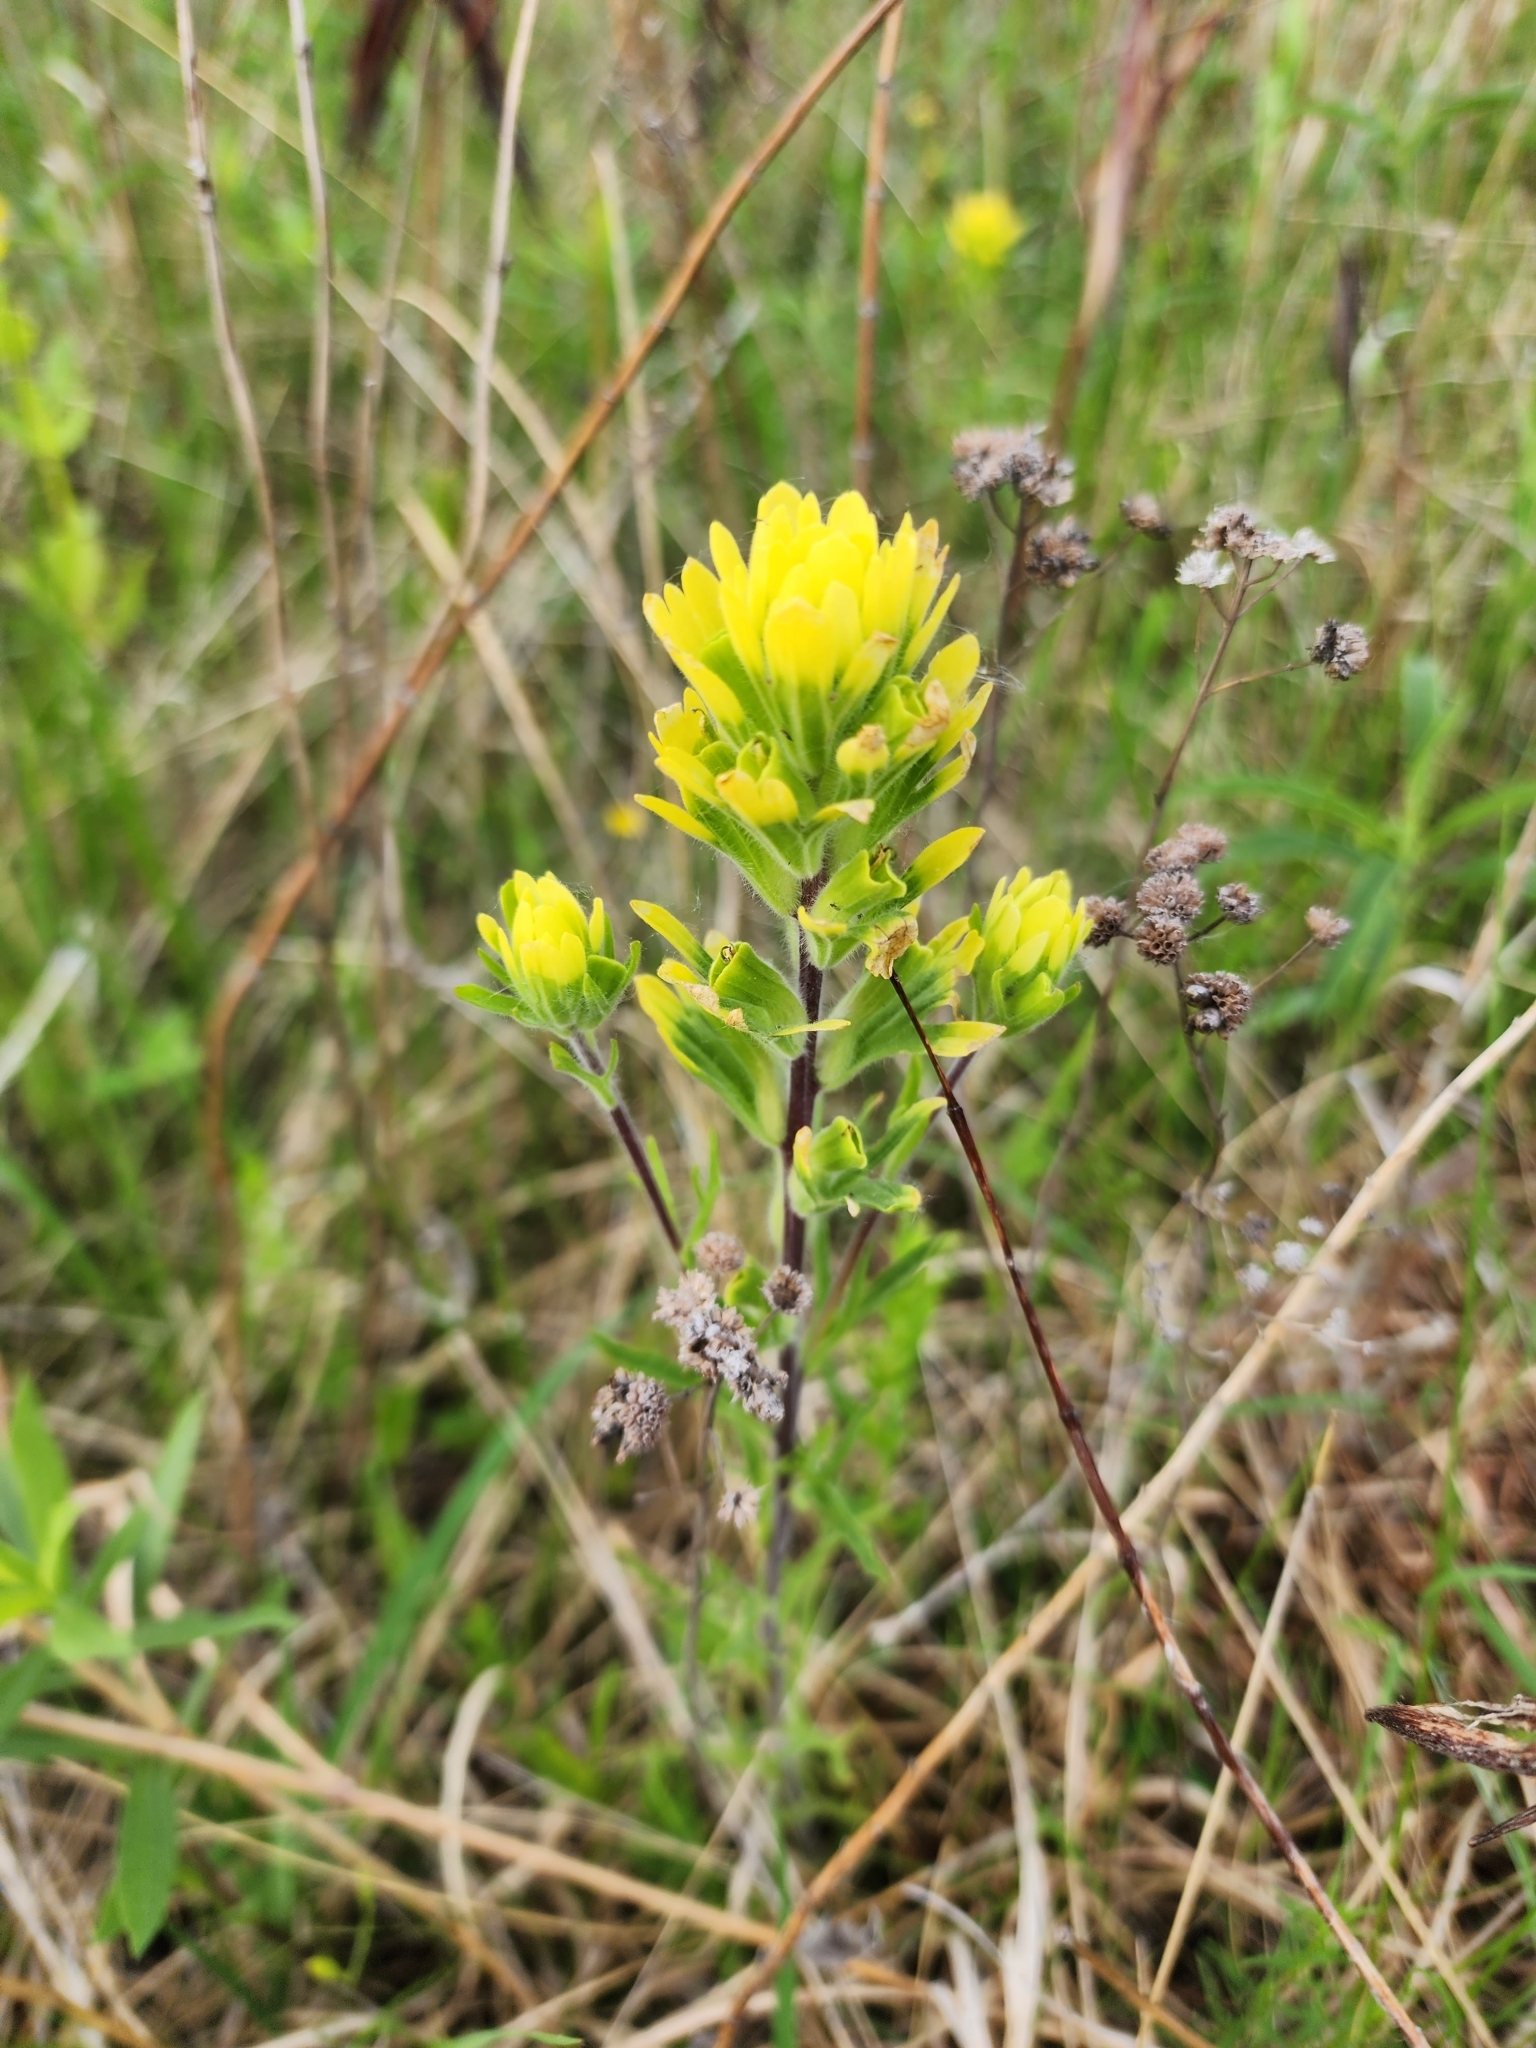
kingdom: Plantae
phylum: Tracheophyta
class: Magnoliopsida
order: Lamiales
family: Orobanchaceae
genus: Castilleja
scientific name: Castilleja coccinea
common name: Scarlet paintbrush
